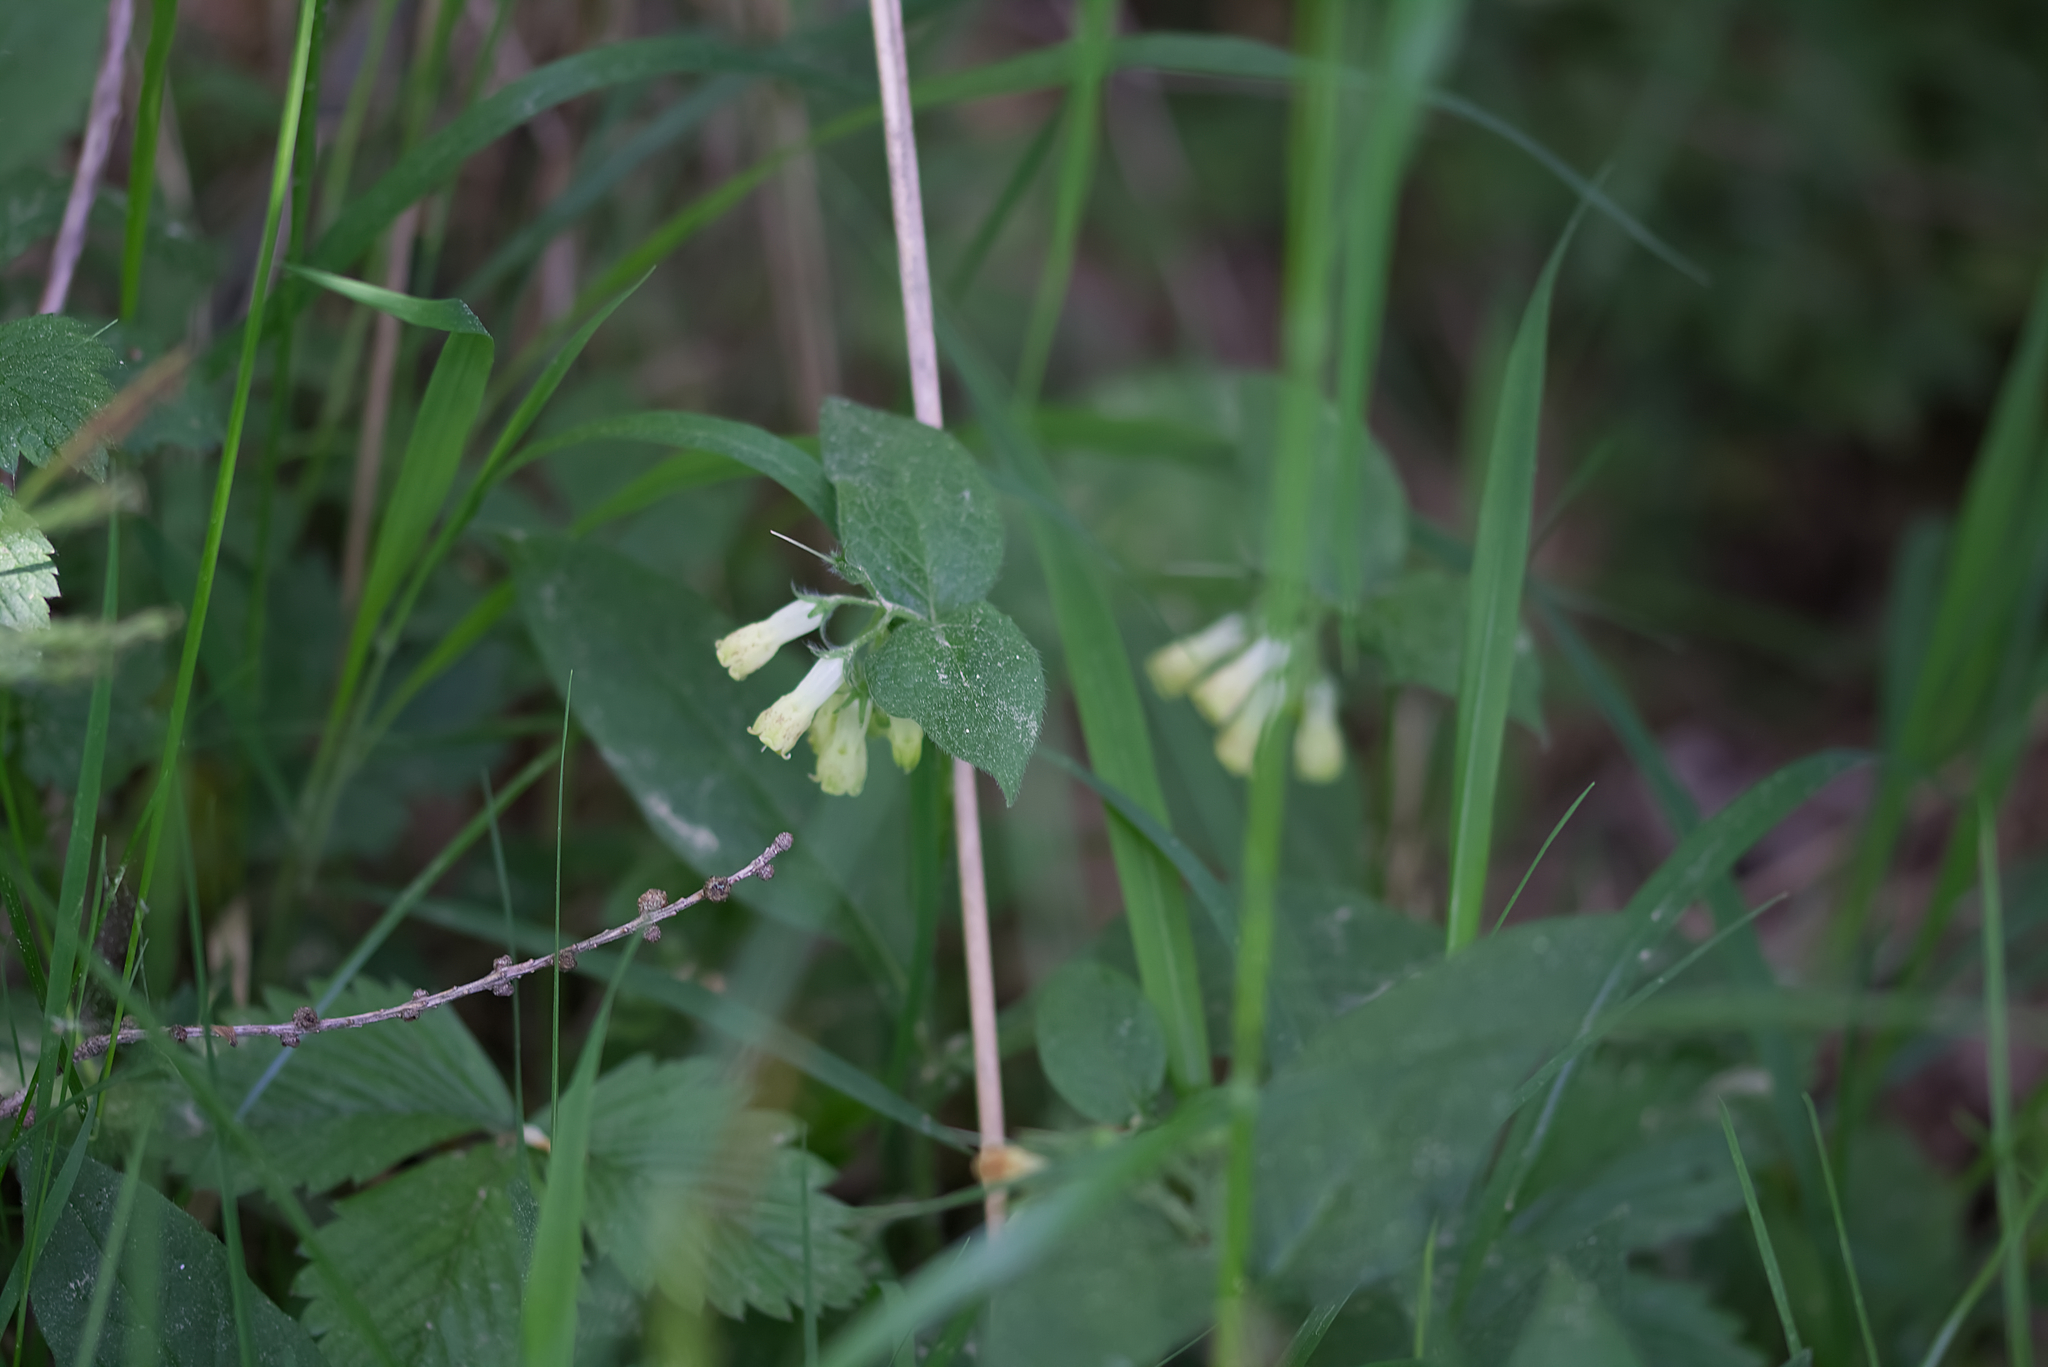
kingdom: Plantae
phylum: Tracheophyta
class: Magnoliopsida
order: Boraginales
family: Boraginaceae
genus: Symphytum
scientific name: Symphytum tuberosum
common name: Tuberous comfrey
